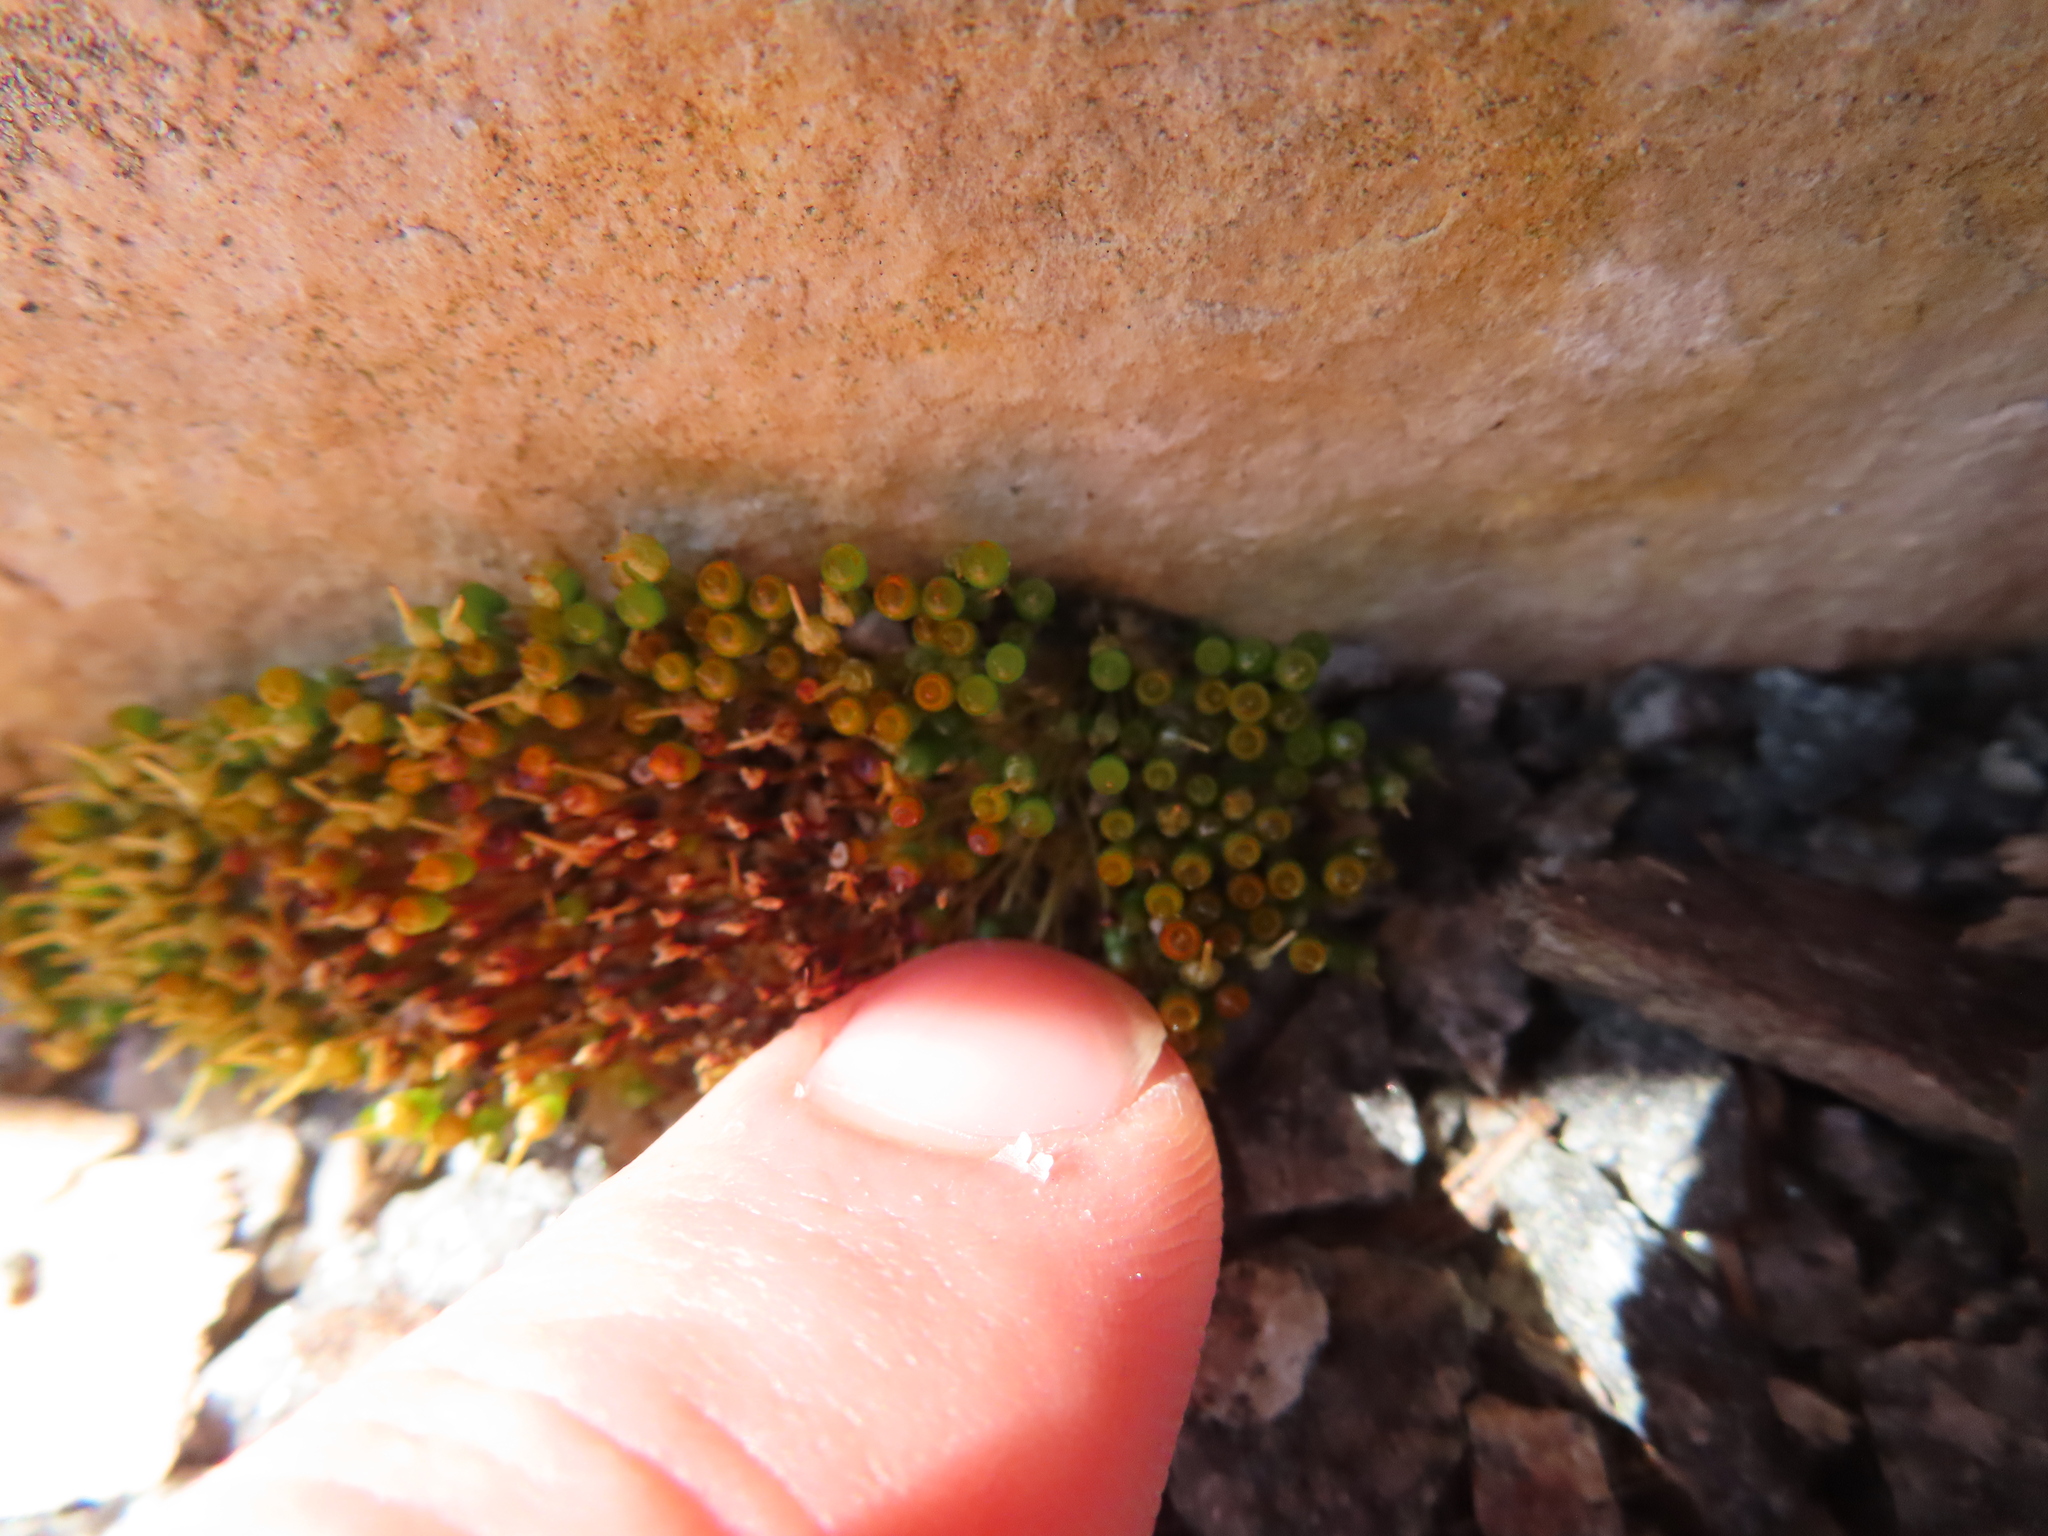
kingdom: Plantae
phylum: Bryophyta
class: Bryopsida
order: Funariales
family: Funariaceae
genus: Physcomitrium
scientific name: Physcomitrium pyriforme
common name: Common bladder-moss
